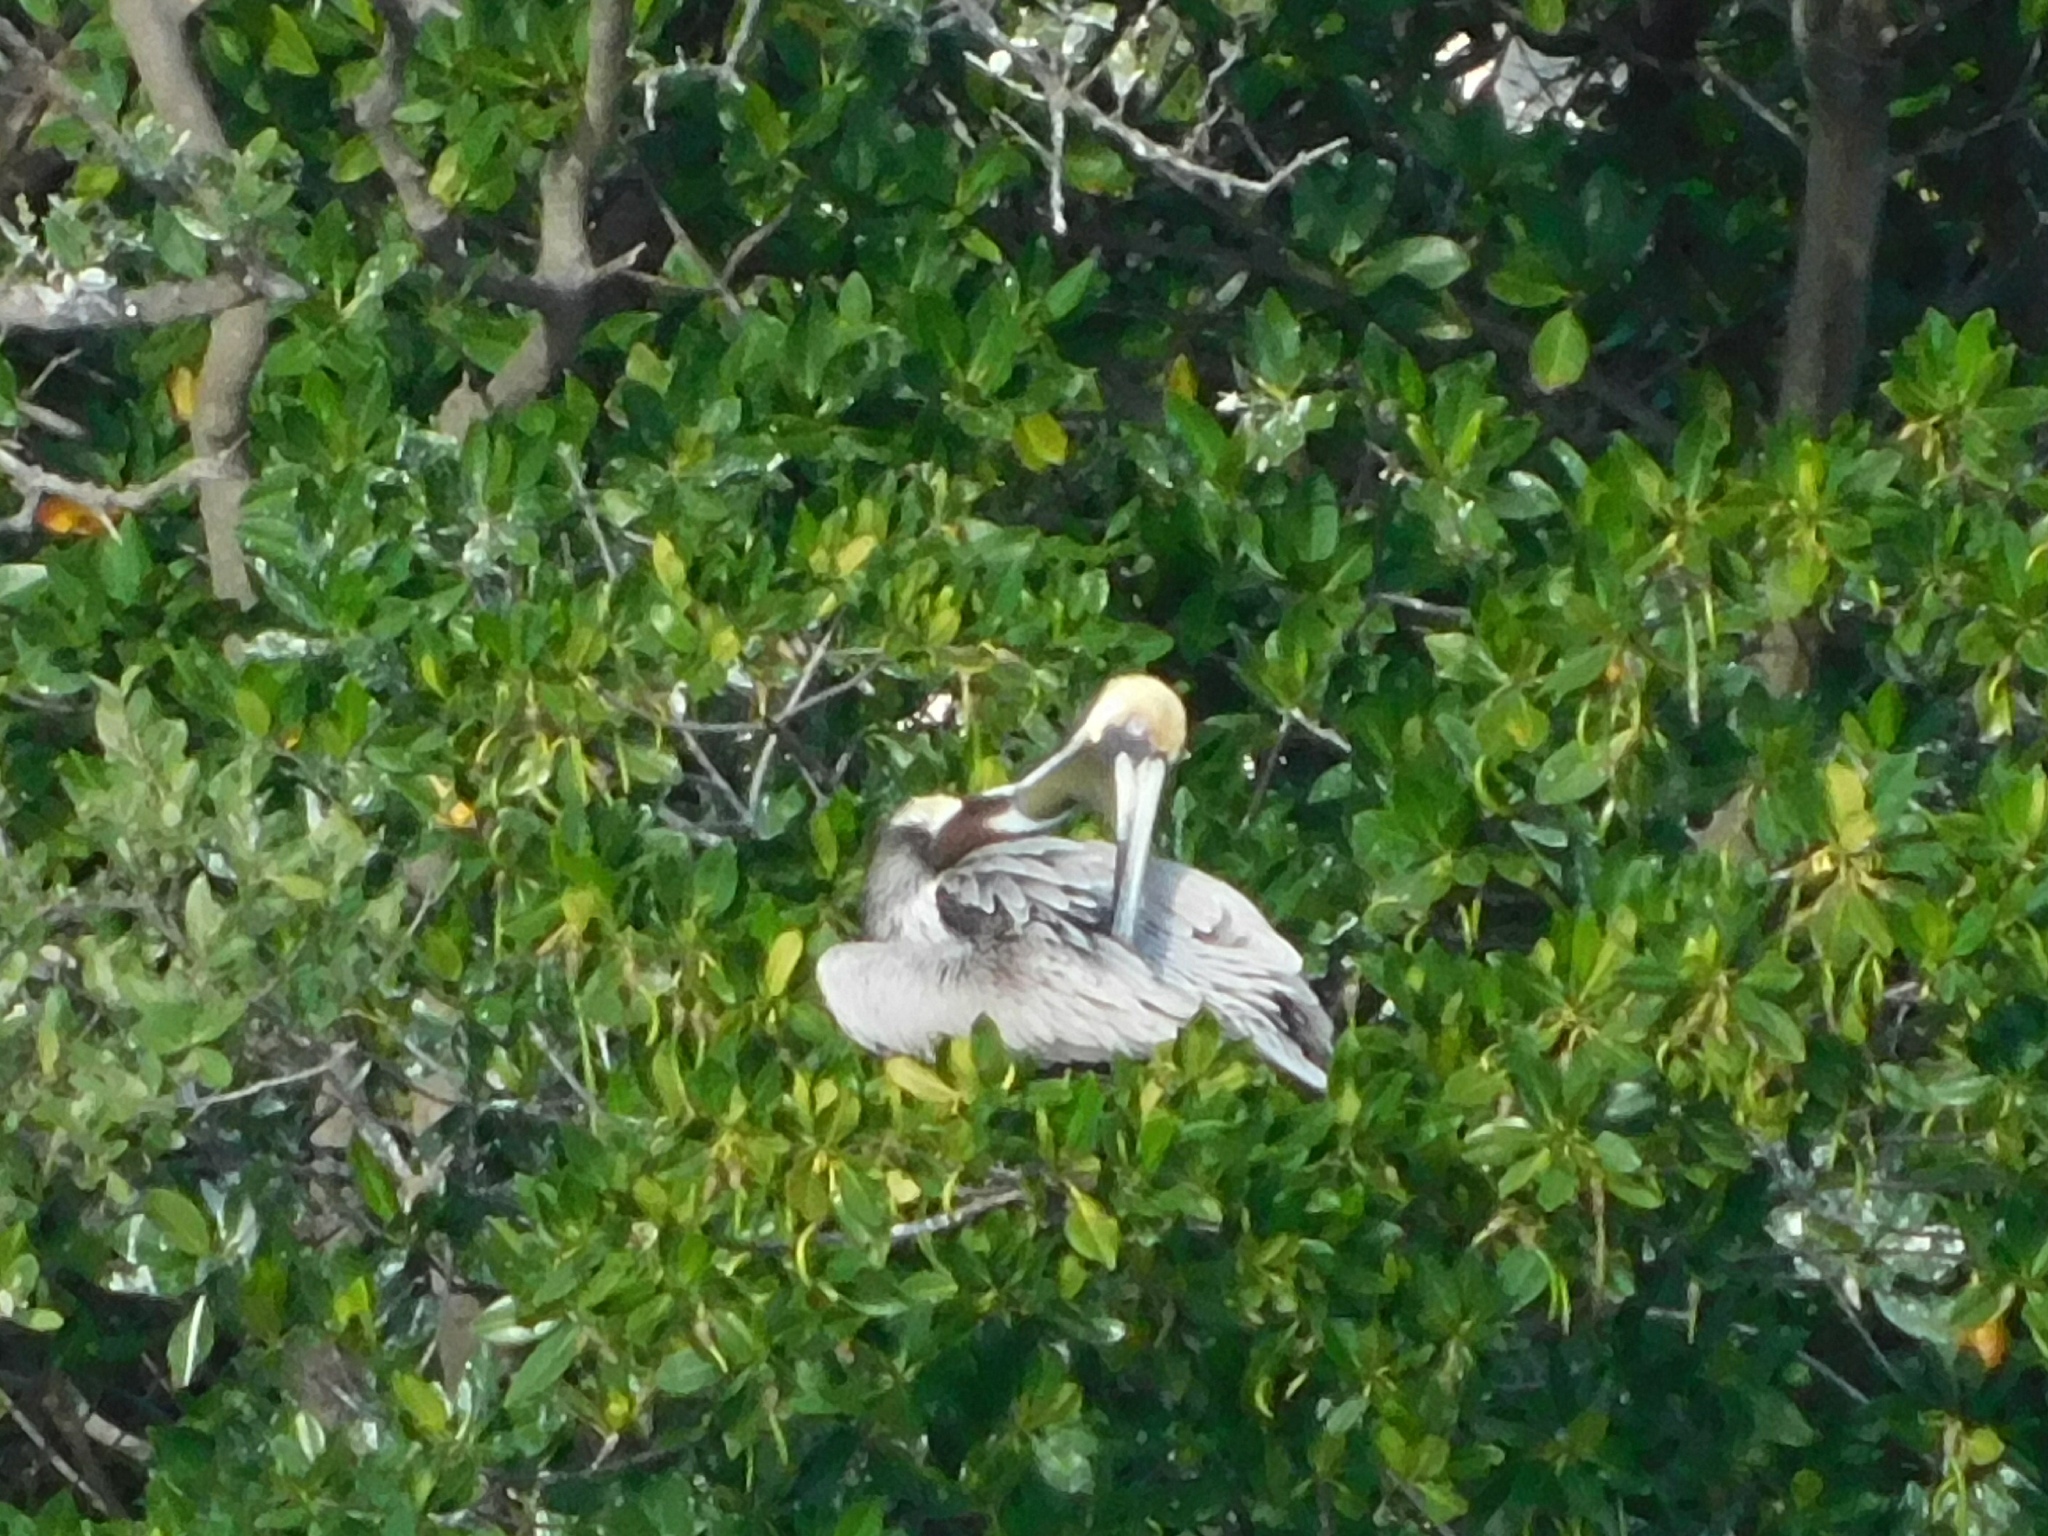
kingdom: Animalia
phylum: Chordata
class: Aves
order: Pelecaniformes
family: Pelecanidae
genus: Pelecanus
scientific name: Pelecanus occidentalis
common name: Brown pelican
